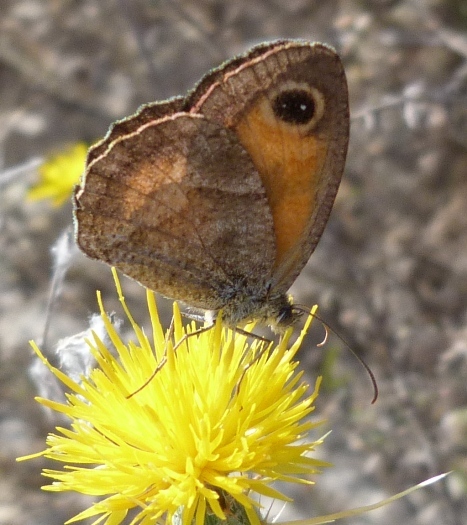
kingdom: Animalia
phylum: Arthropoda
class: Insecta
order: Lepidoptera
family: Nymphalidae
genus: Pyronia
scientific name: Pyronia cecilia
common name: Southern gatekeeper
